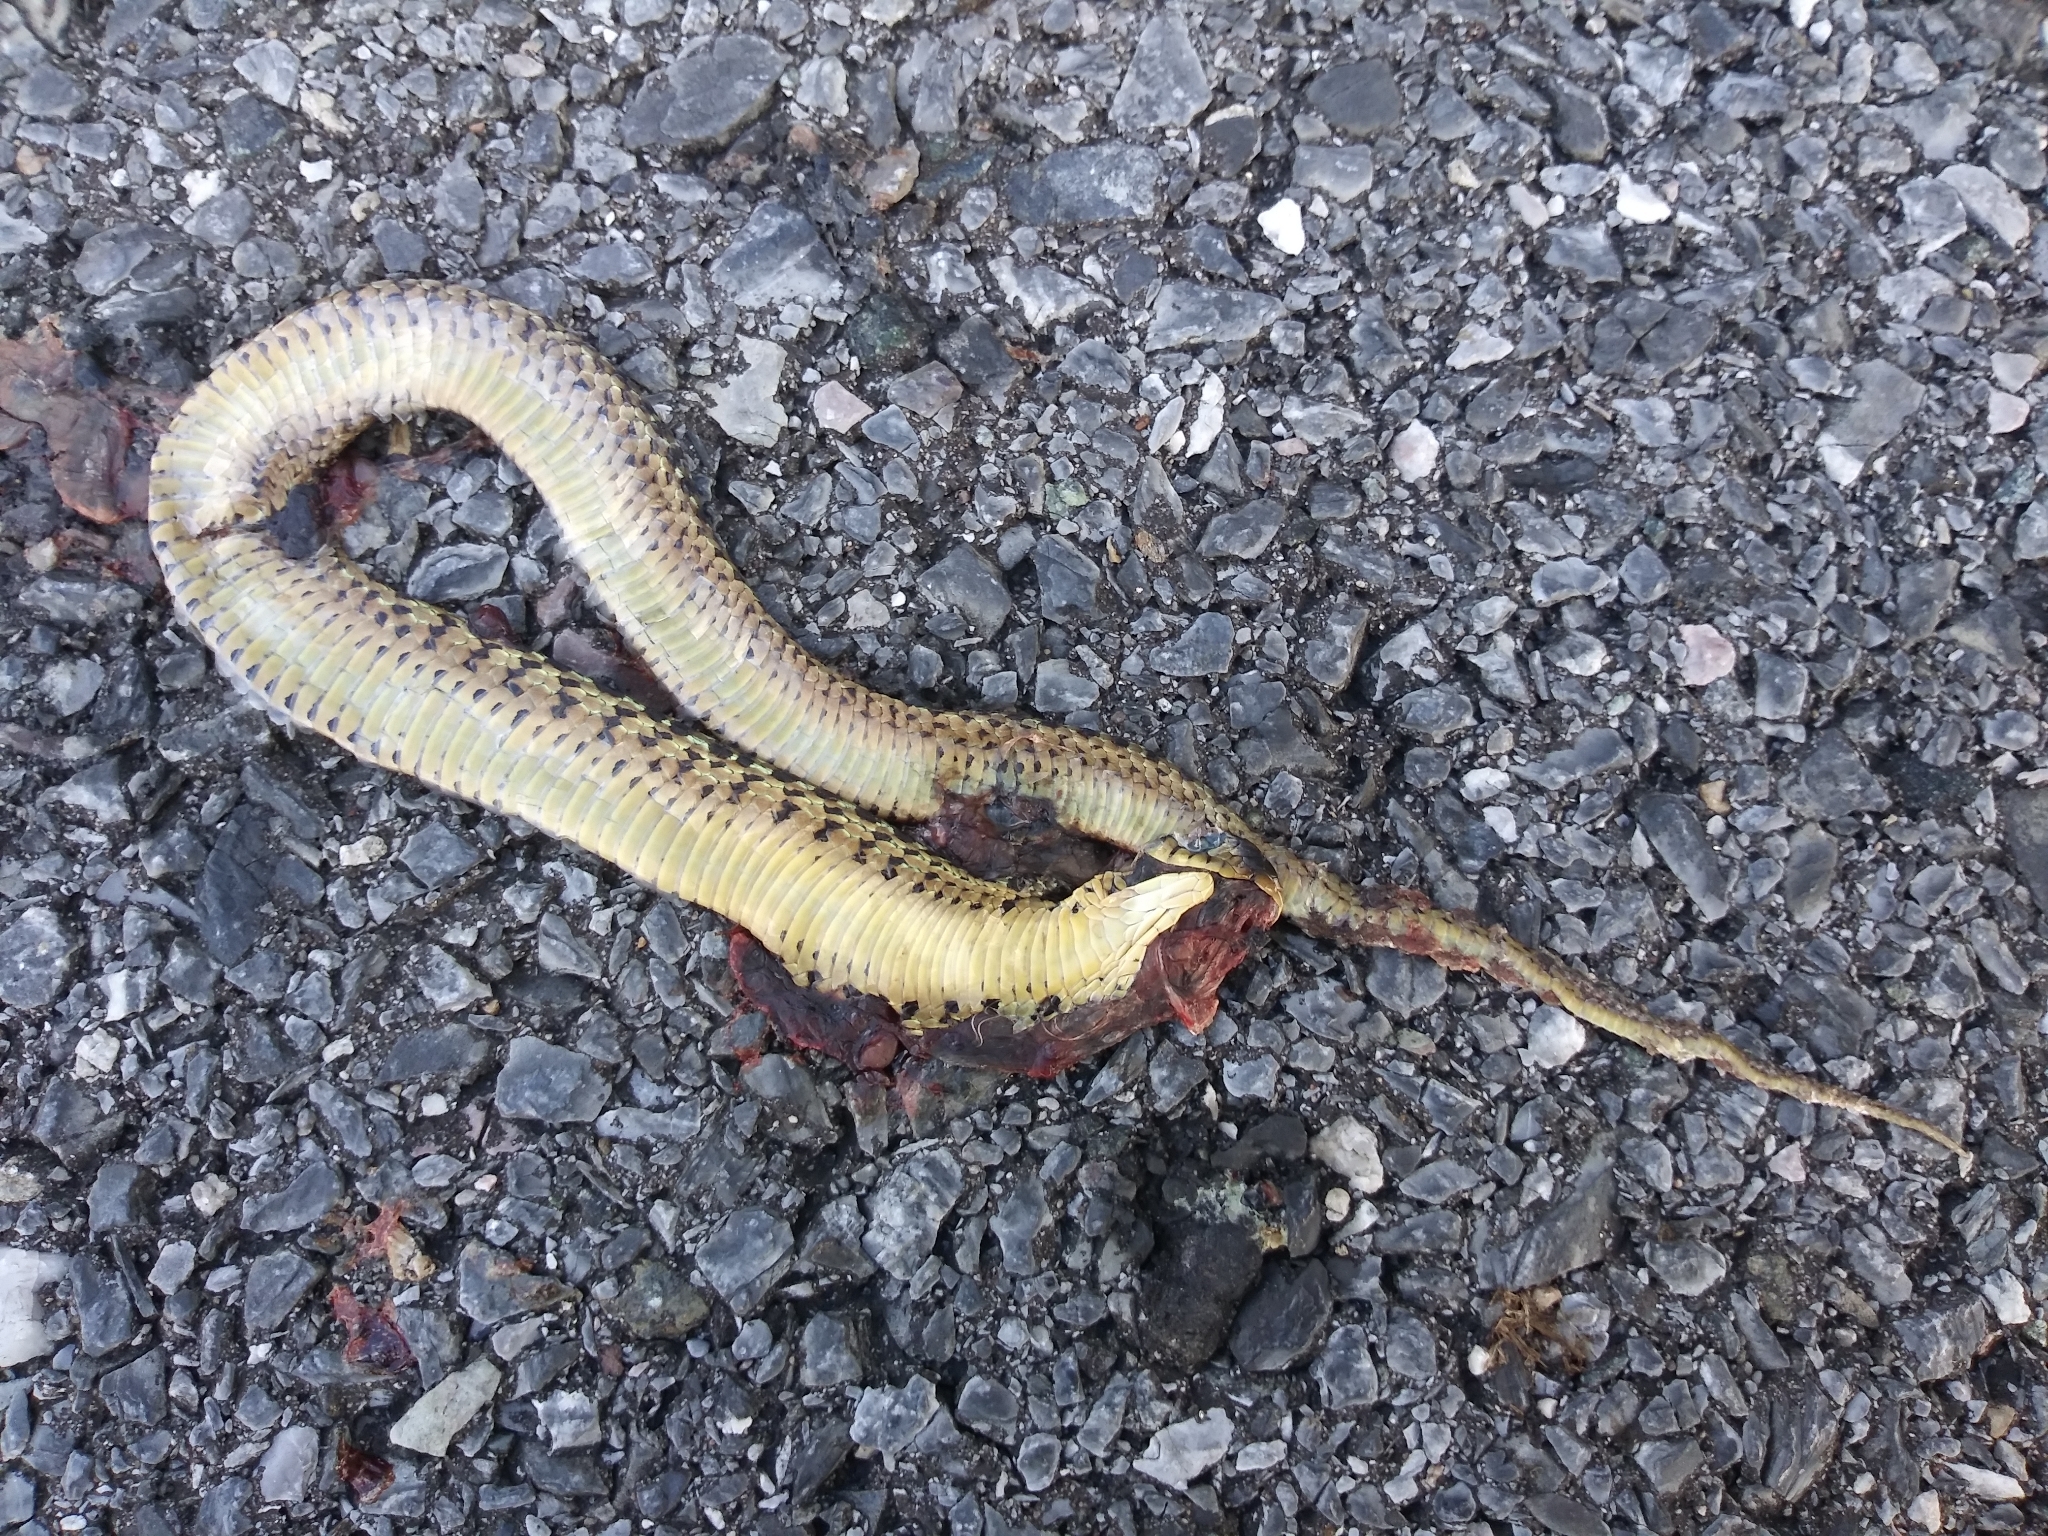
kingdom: Animalia
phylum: Chordata
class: Squamata
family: Colubridae
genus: Thamnophis
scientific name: Thamnophis sirtalis
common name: Common garter snake
